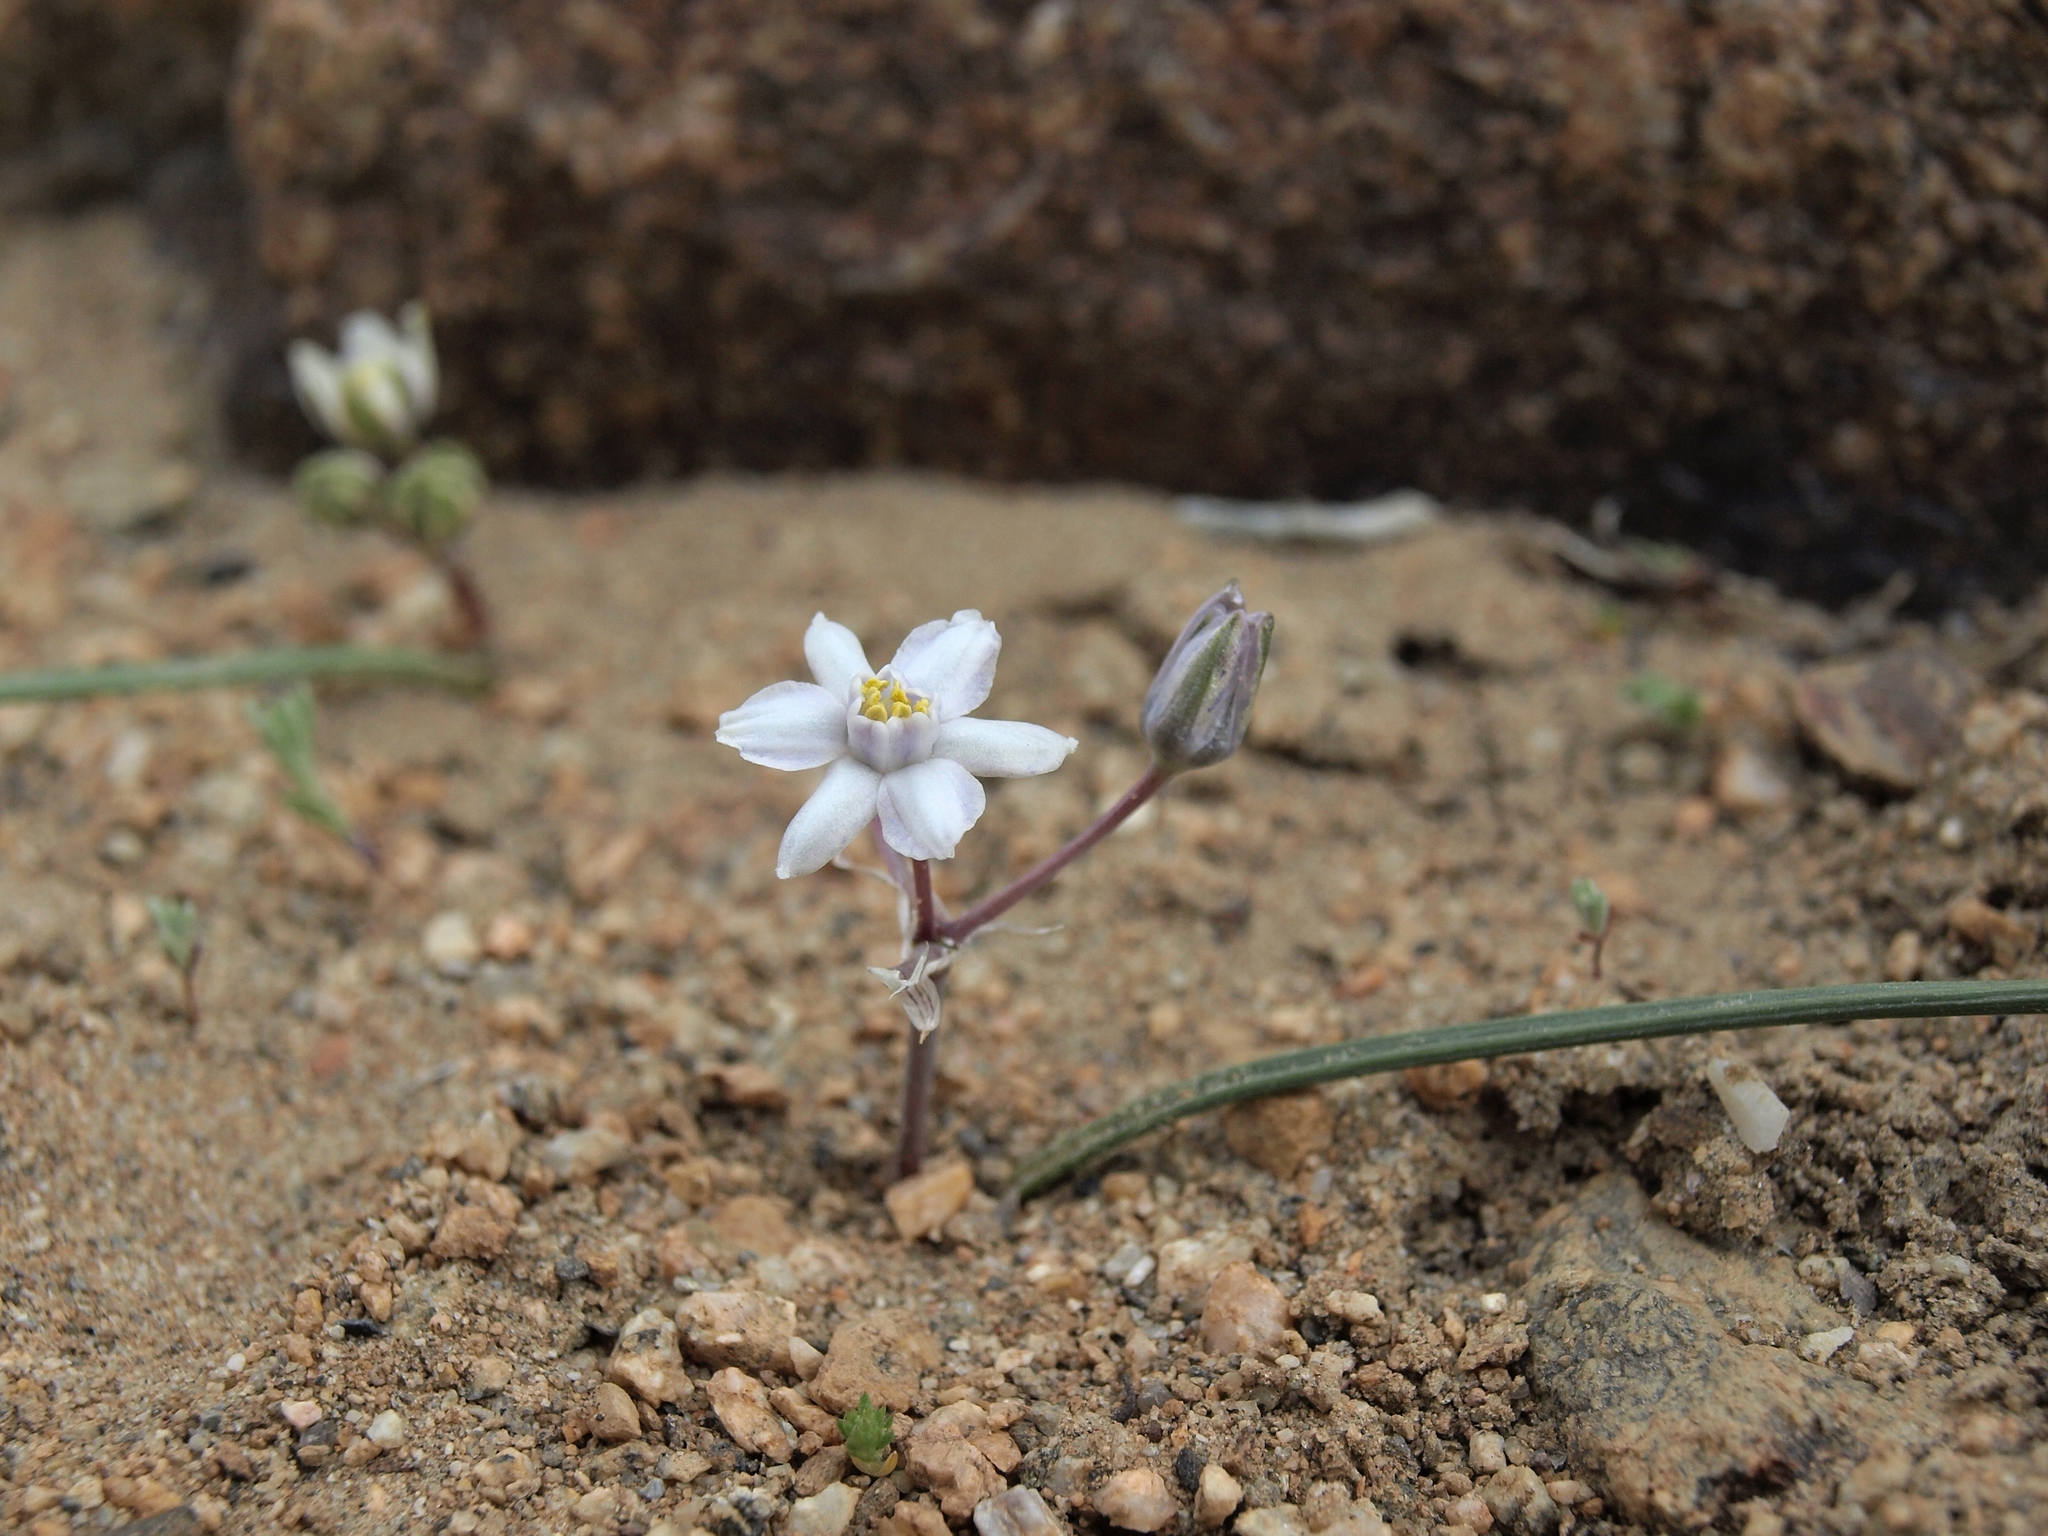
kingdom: Plantae
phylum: Tracheophyta
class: Liliopsida
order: Asparagales
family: Asparagaceae
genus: Muilla
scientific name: Muilla coronata
